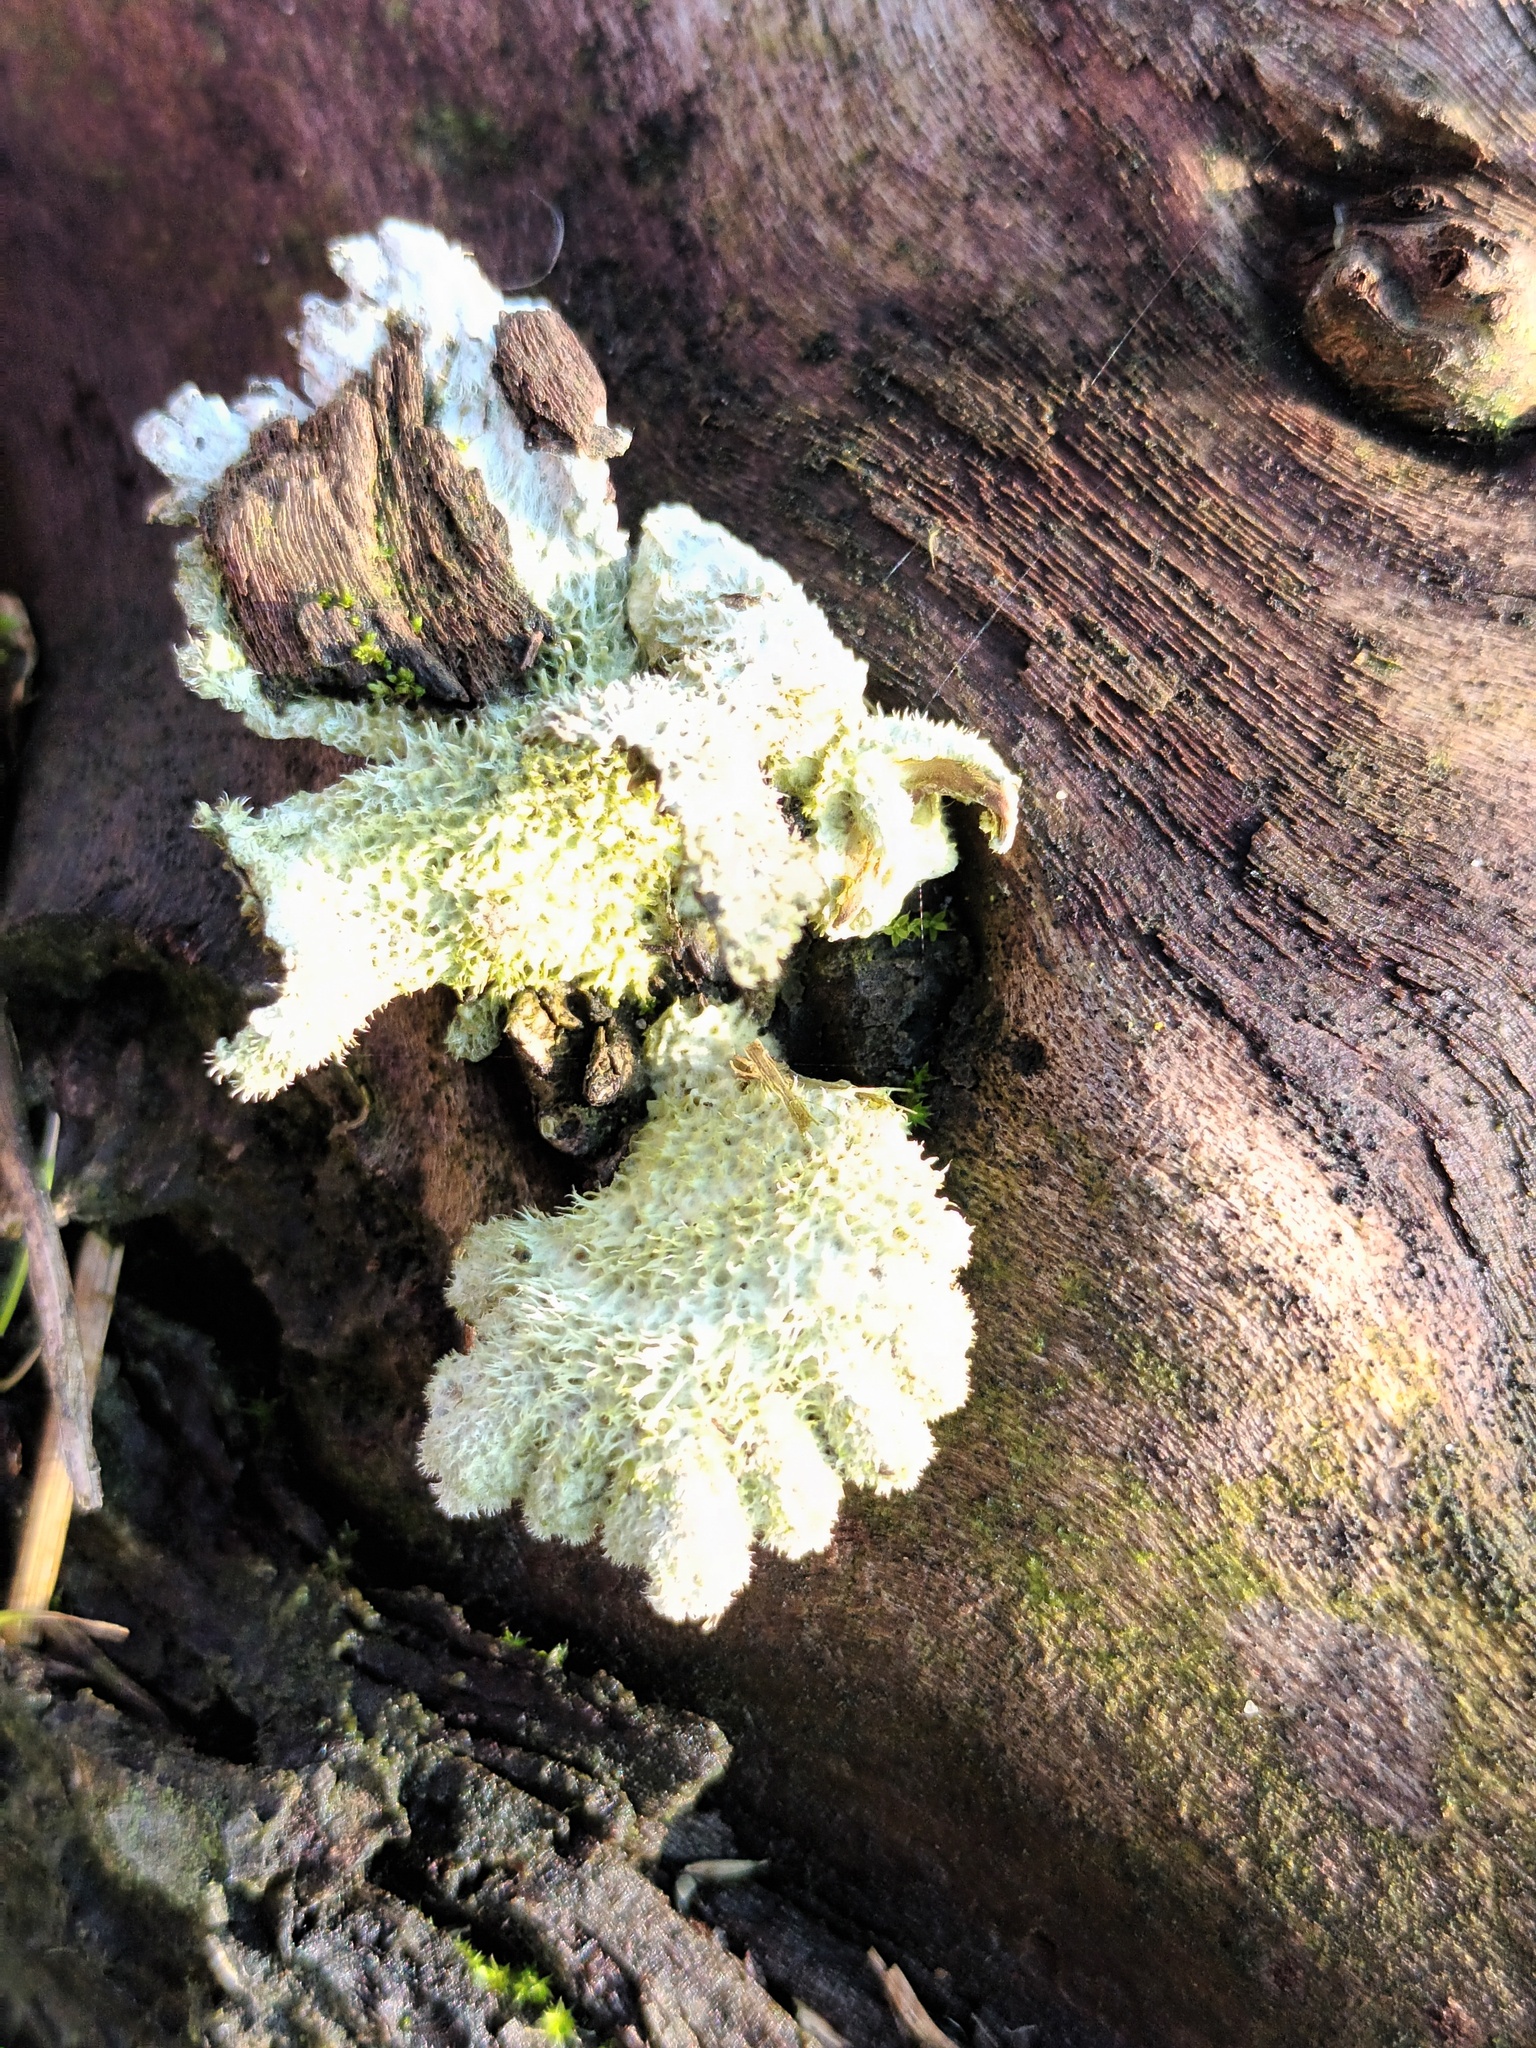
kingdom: Fungi
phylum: Basidiomycota
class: Agaricomycetes
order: Agaricales
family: Schizophyllaceae
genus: Schizophyllum
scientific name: Schizophyllum commune
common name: Common porecrust
